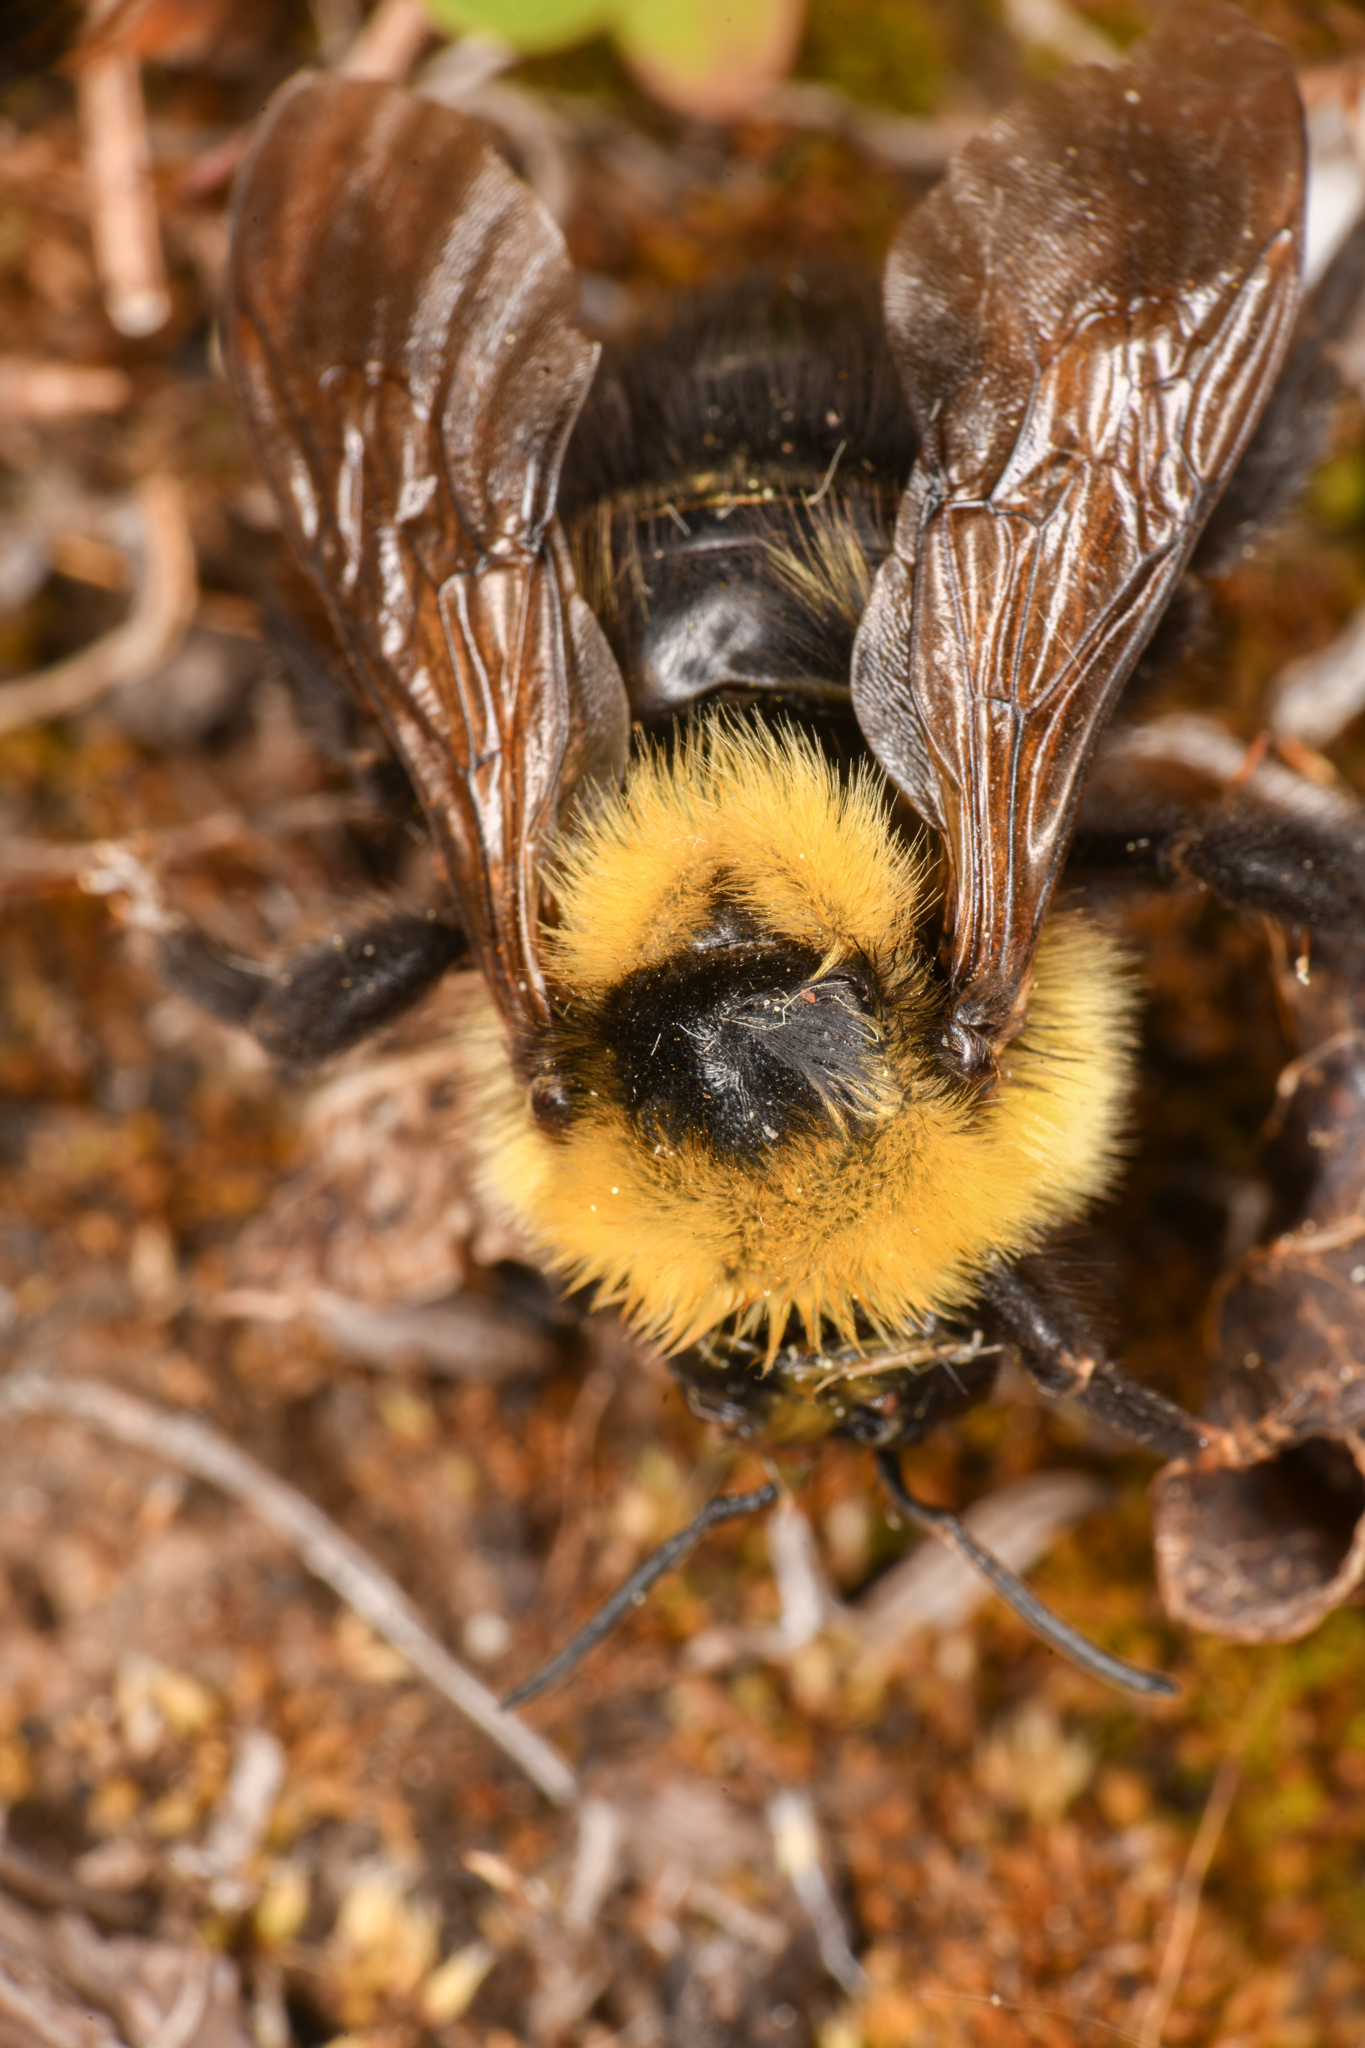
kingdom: Animalia
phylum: Arthropoda
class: Insecta
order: Hymenoptera
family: Apidae
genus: Bombus
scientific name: Bombus insularis
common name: Indiscriminate cuckoo bumble bee
